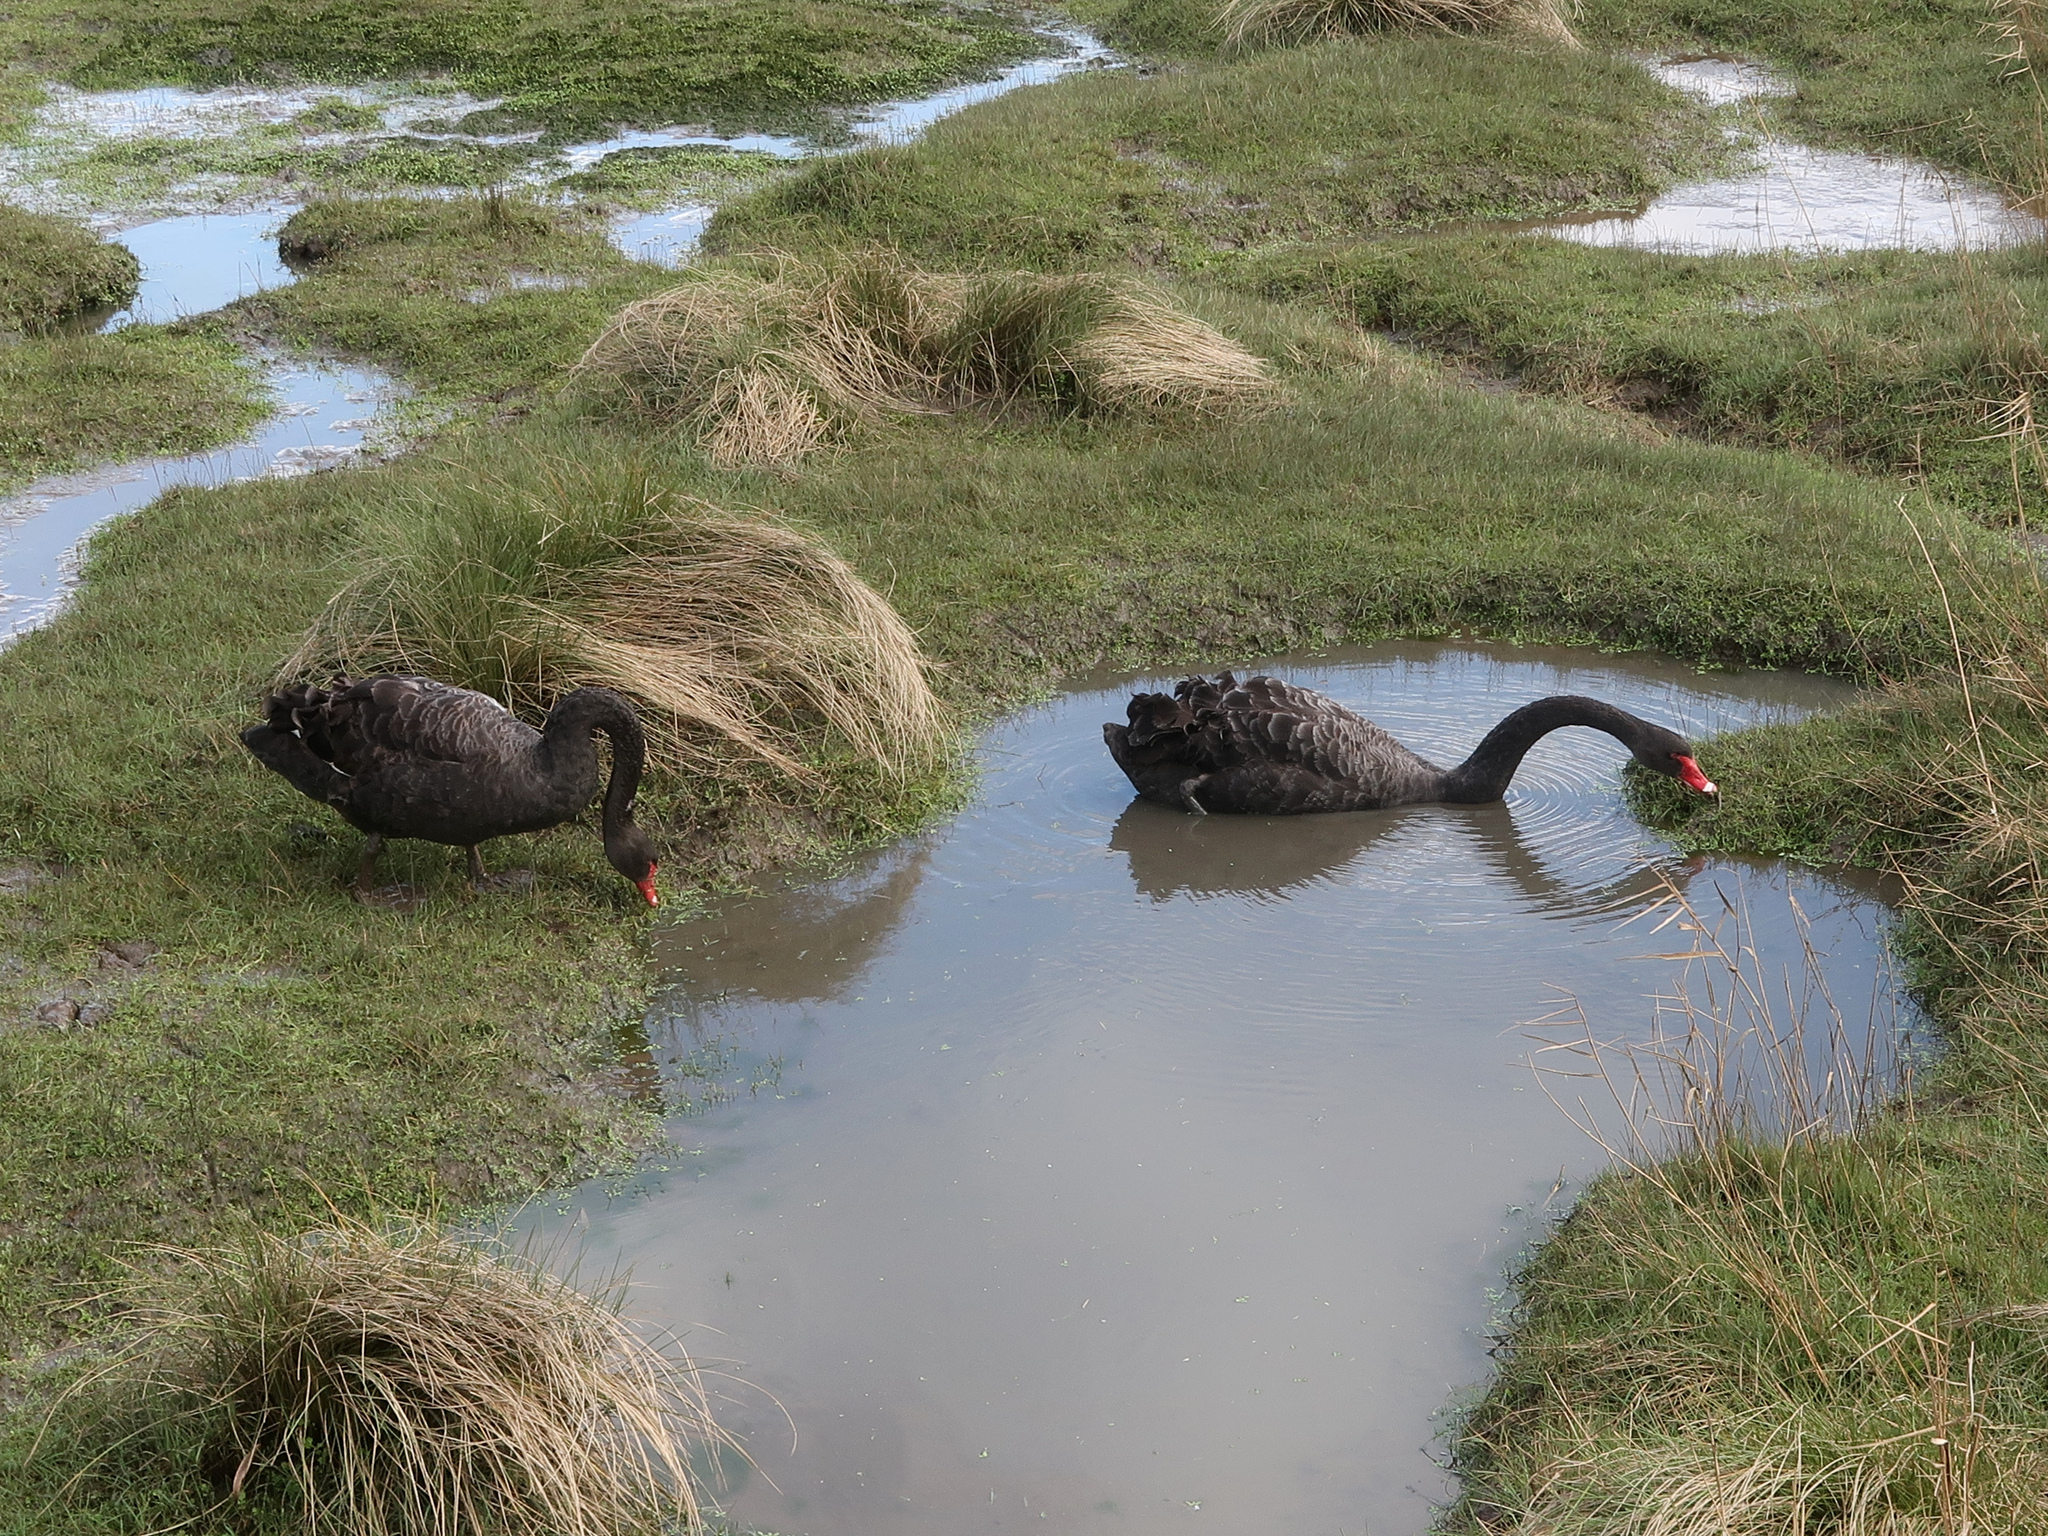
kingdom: Animalia
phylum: Chordata
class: Aves
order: Anseriformes
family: Anatidae
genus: Cygnus
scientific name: Cygnus atratus
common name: Black swan
